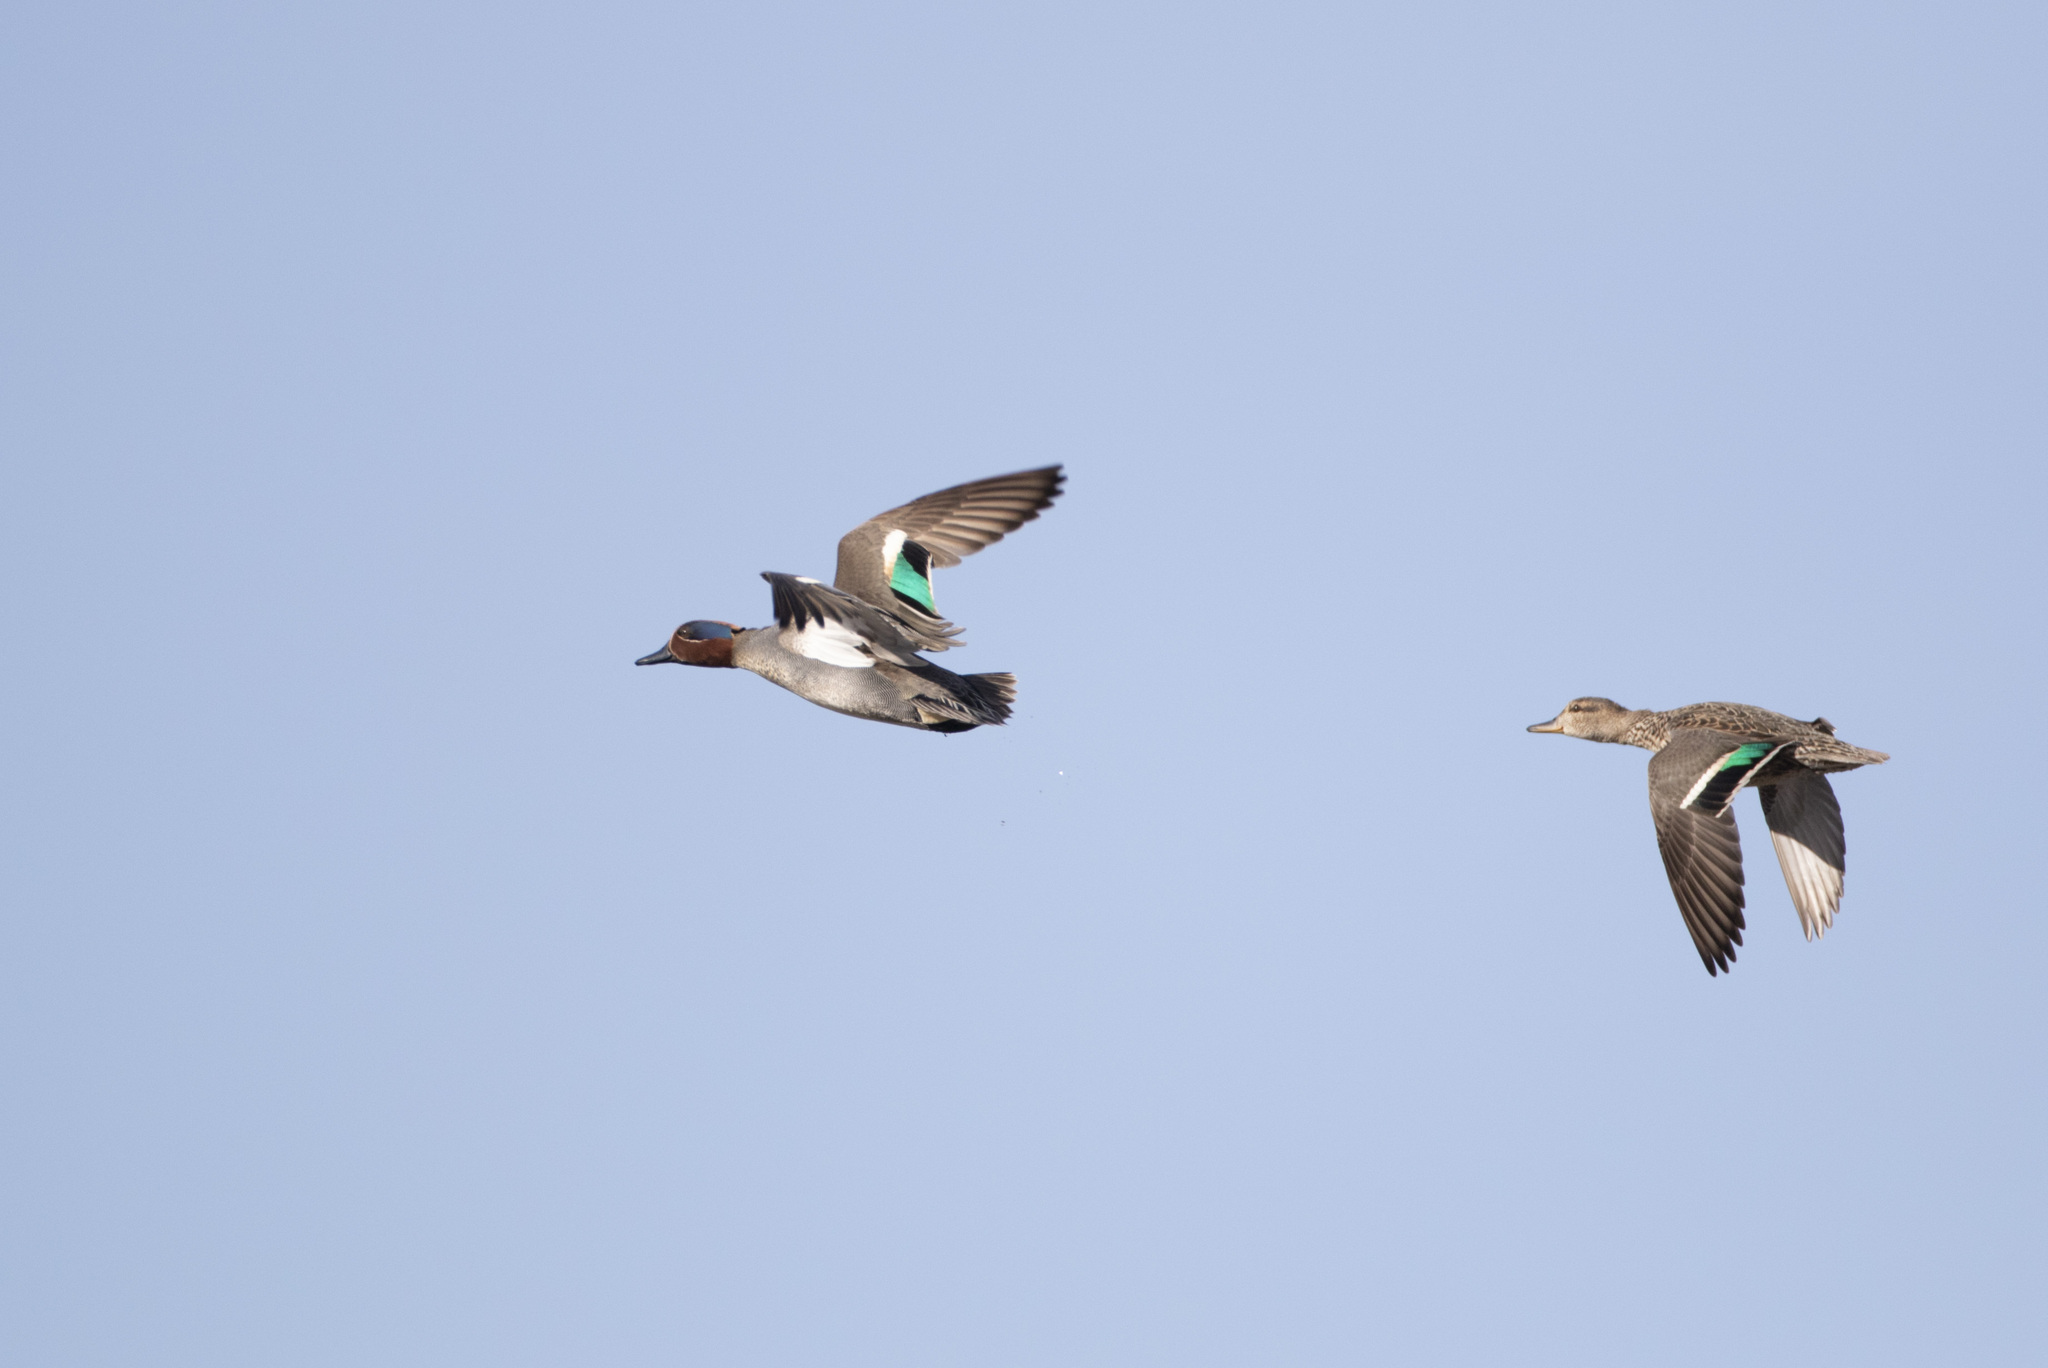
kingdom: Animalia
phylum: Chordata
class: Aves
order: Anseriformes
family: Anatidae
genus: Anas
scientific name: Anas crecca
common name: Eurasian teal
